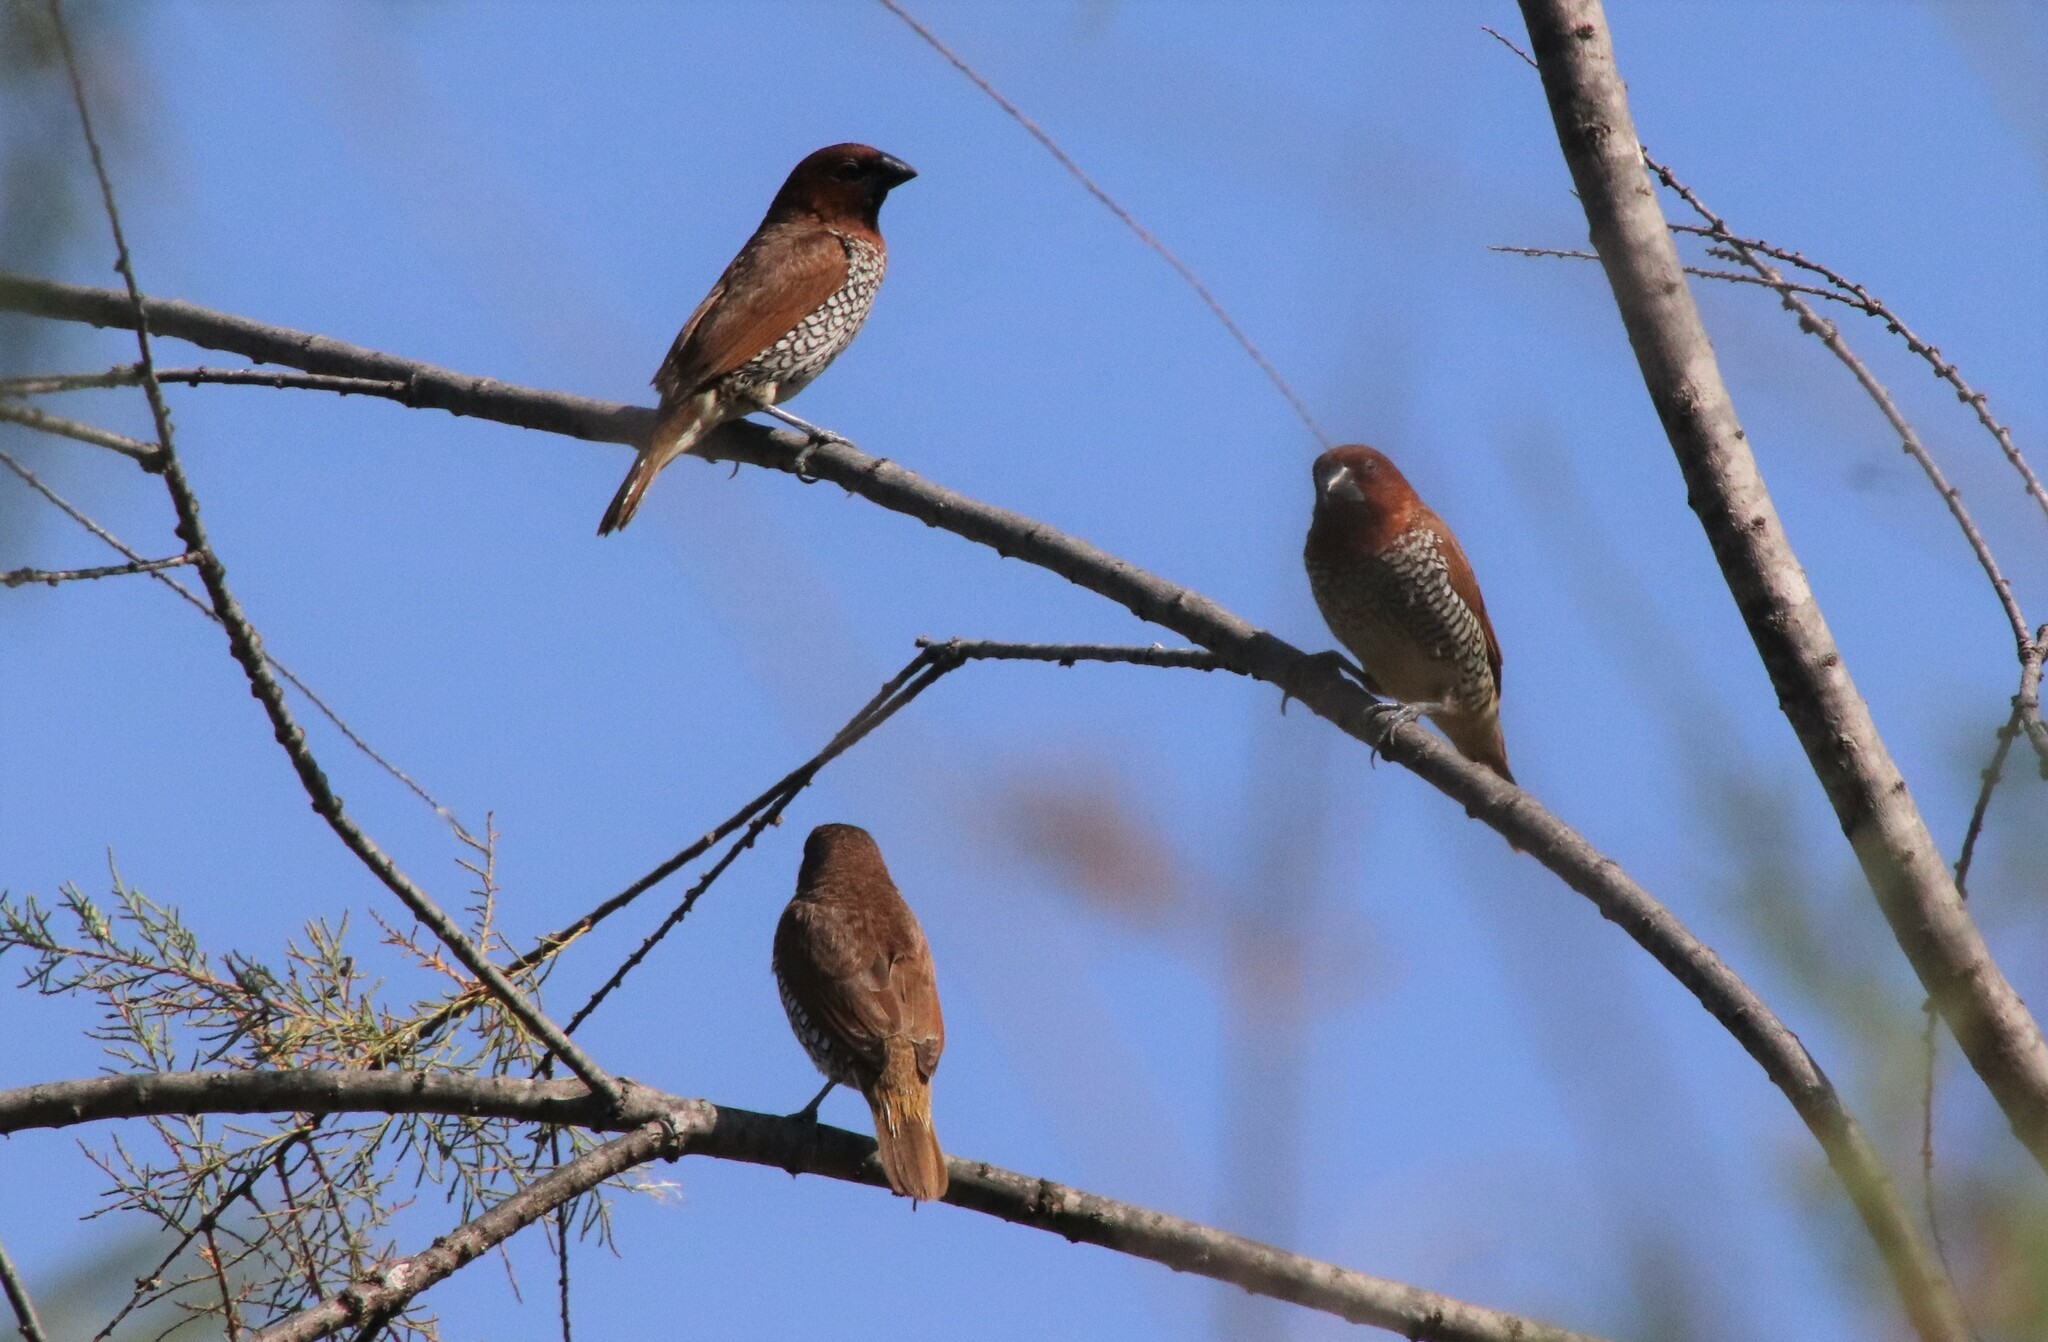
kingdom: Animalia
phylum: Chordata
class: Aves
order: Passeriformes
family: Estrildidae
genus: Lonchura
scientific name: Lonchura punctulata
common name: Scaly-breasted munia
